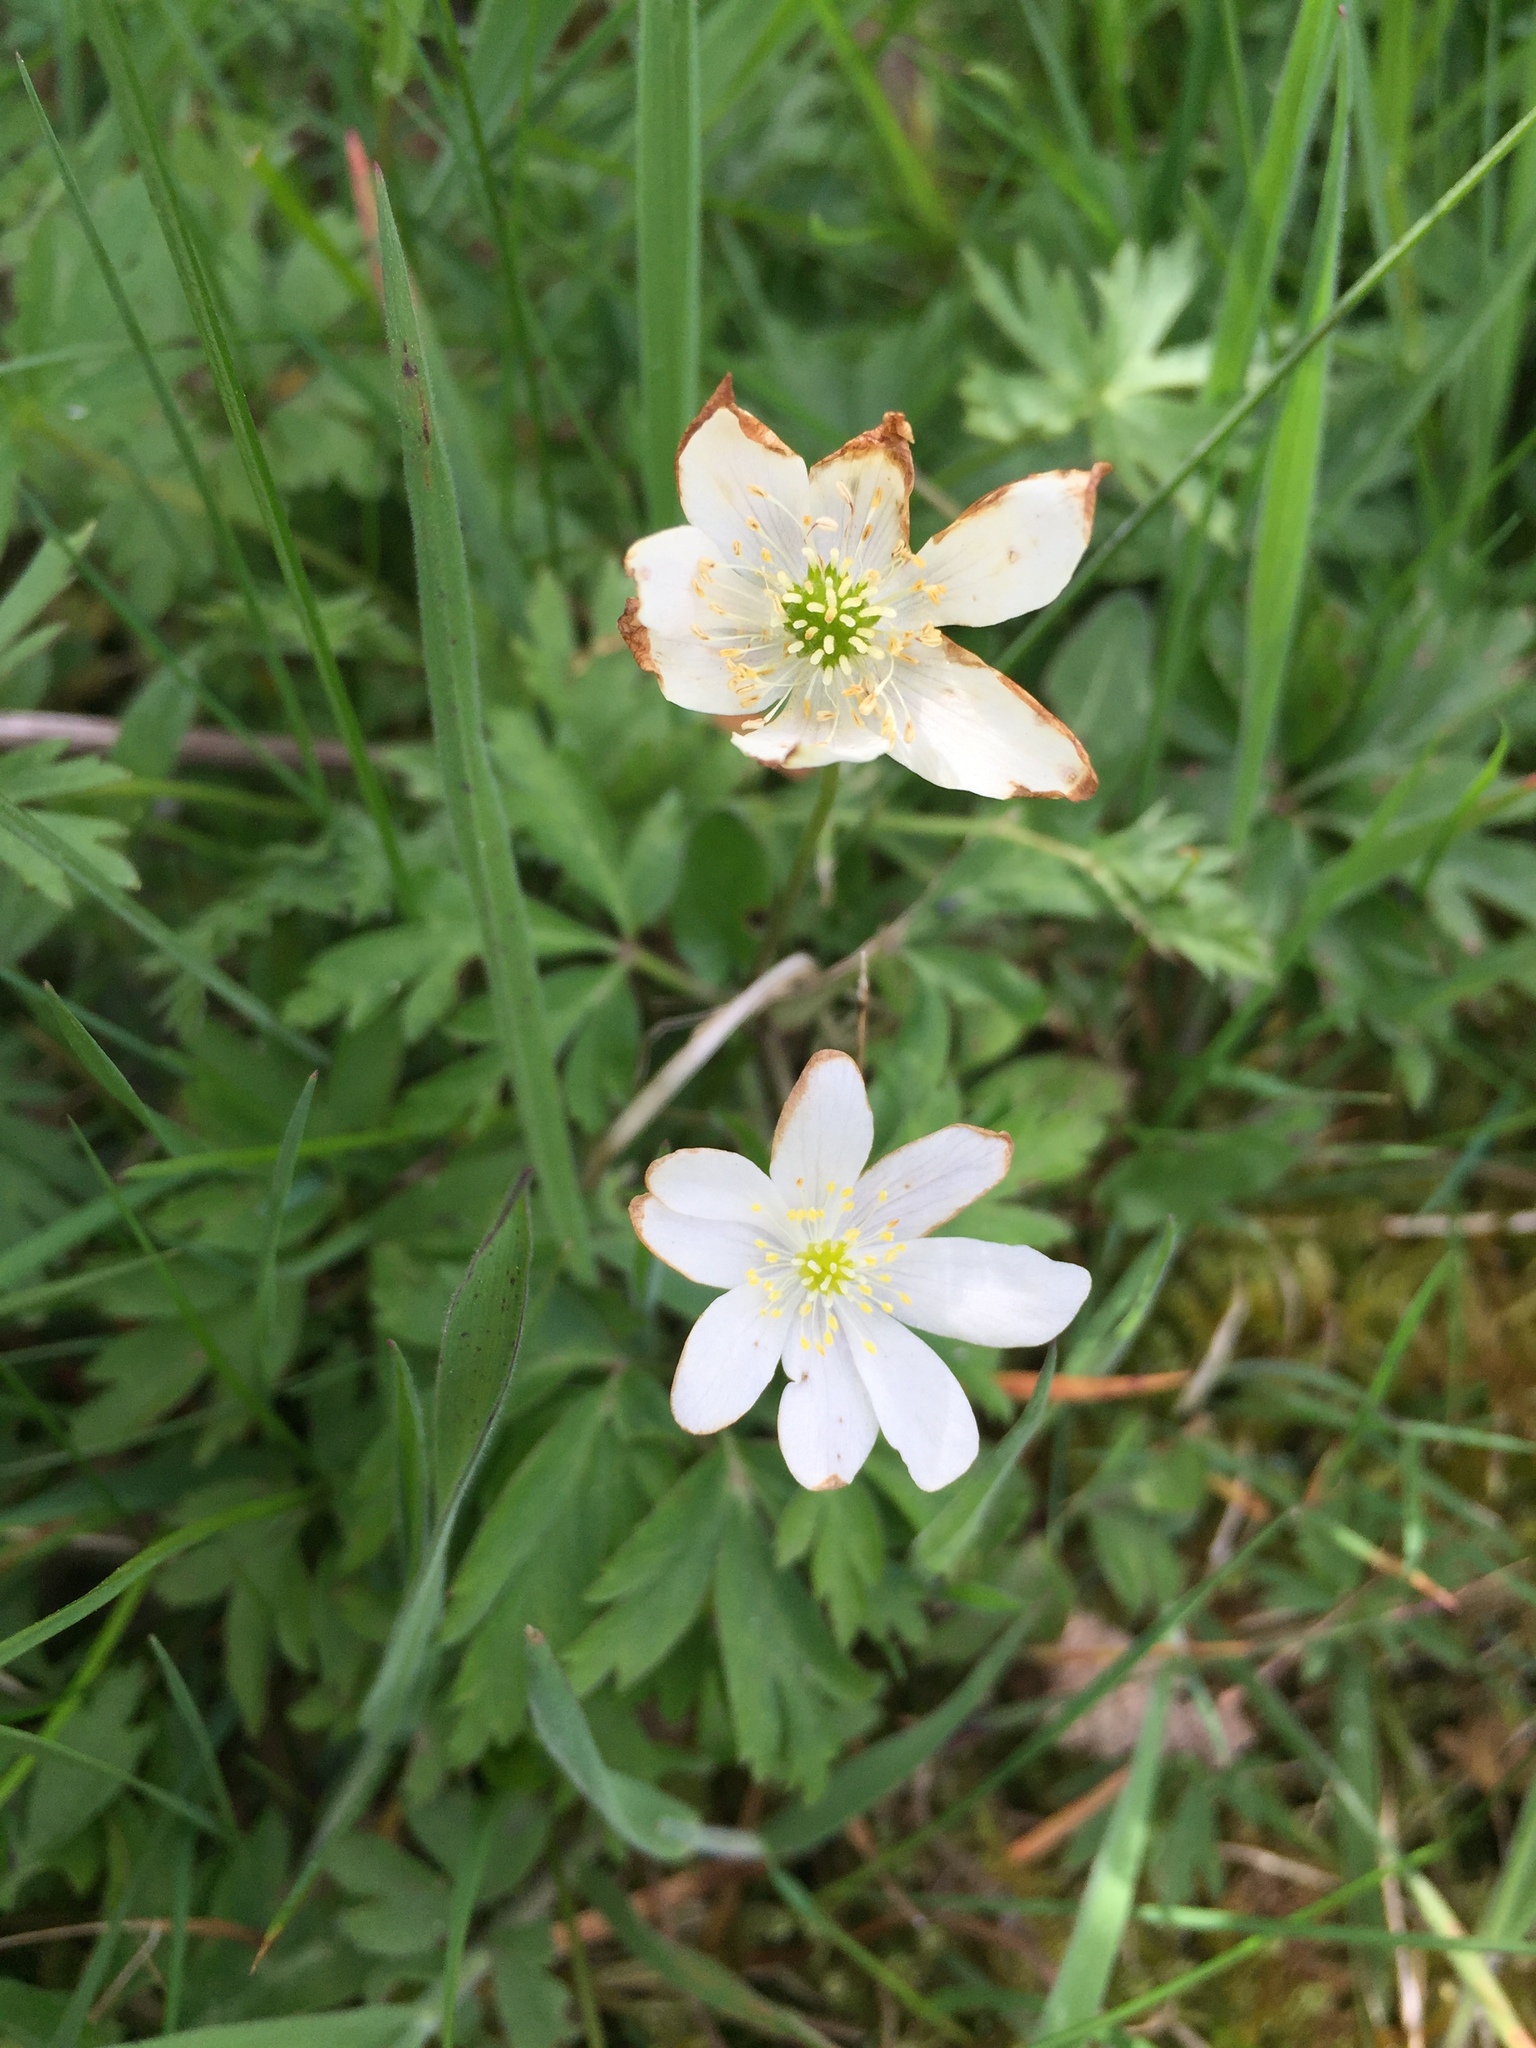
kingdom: Plantae
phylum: Tracheophyta
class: Magnoliopsida
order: Ranunculales
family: Ranunculaceae
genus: Anemone
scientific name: Anemone nemorosa
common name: Wood anemone
